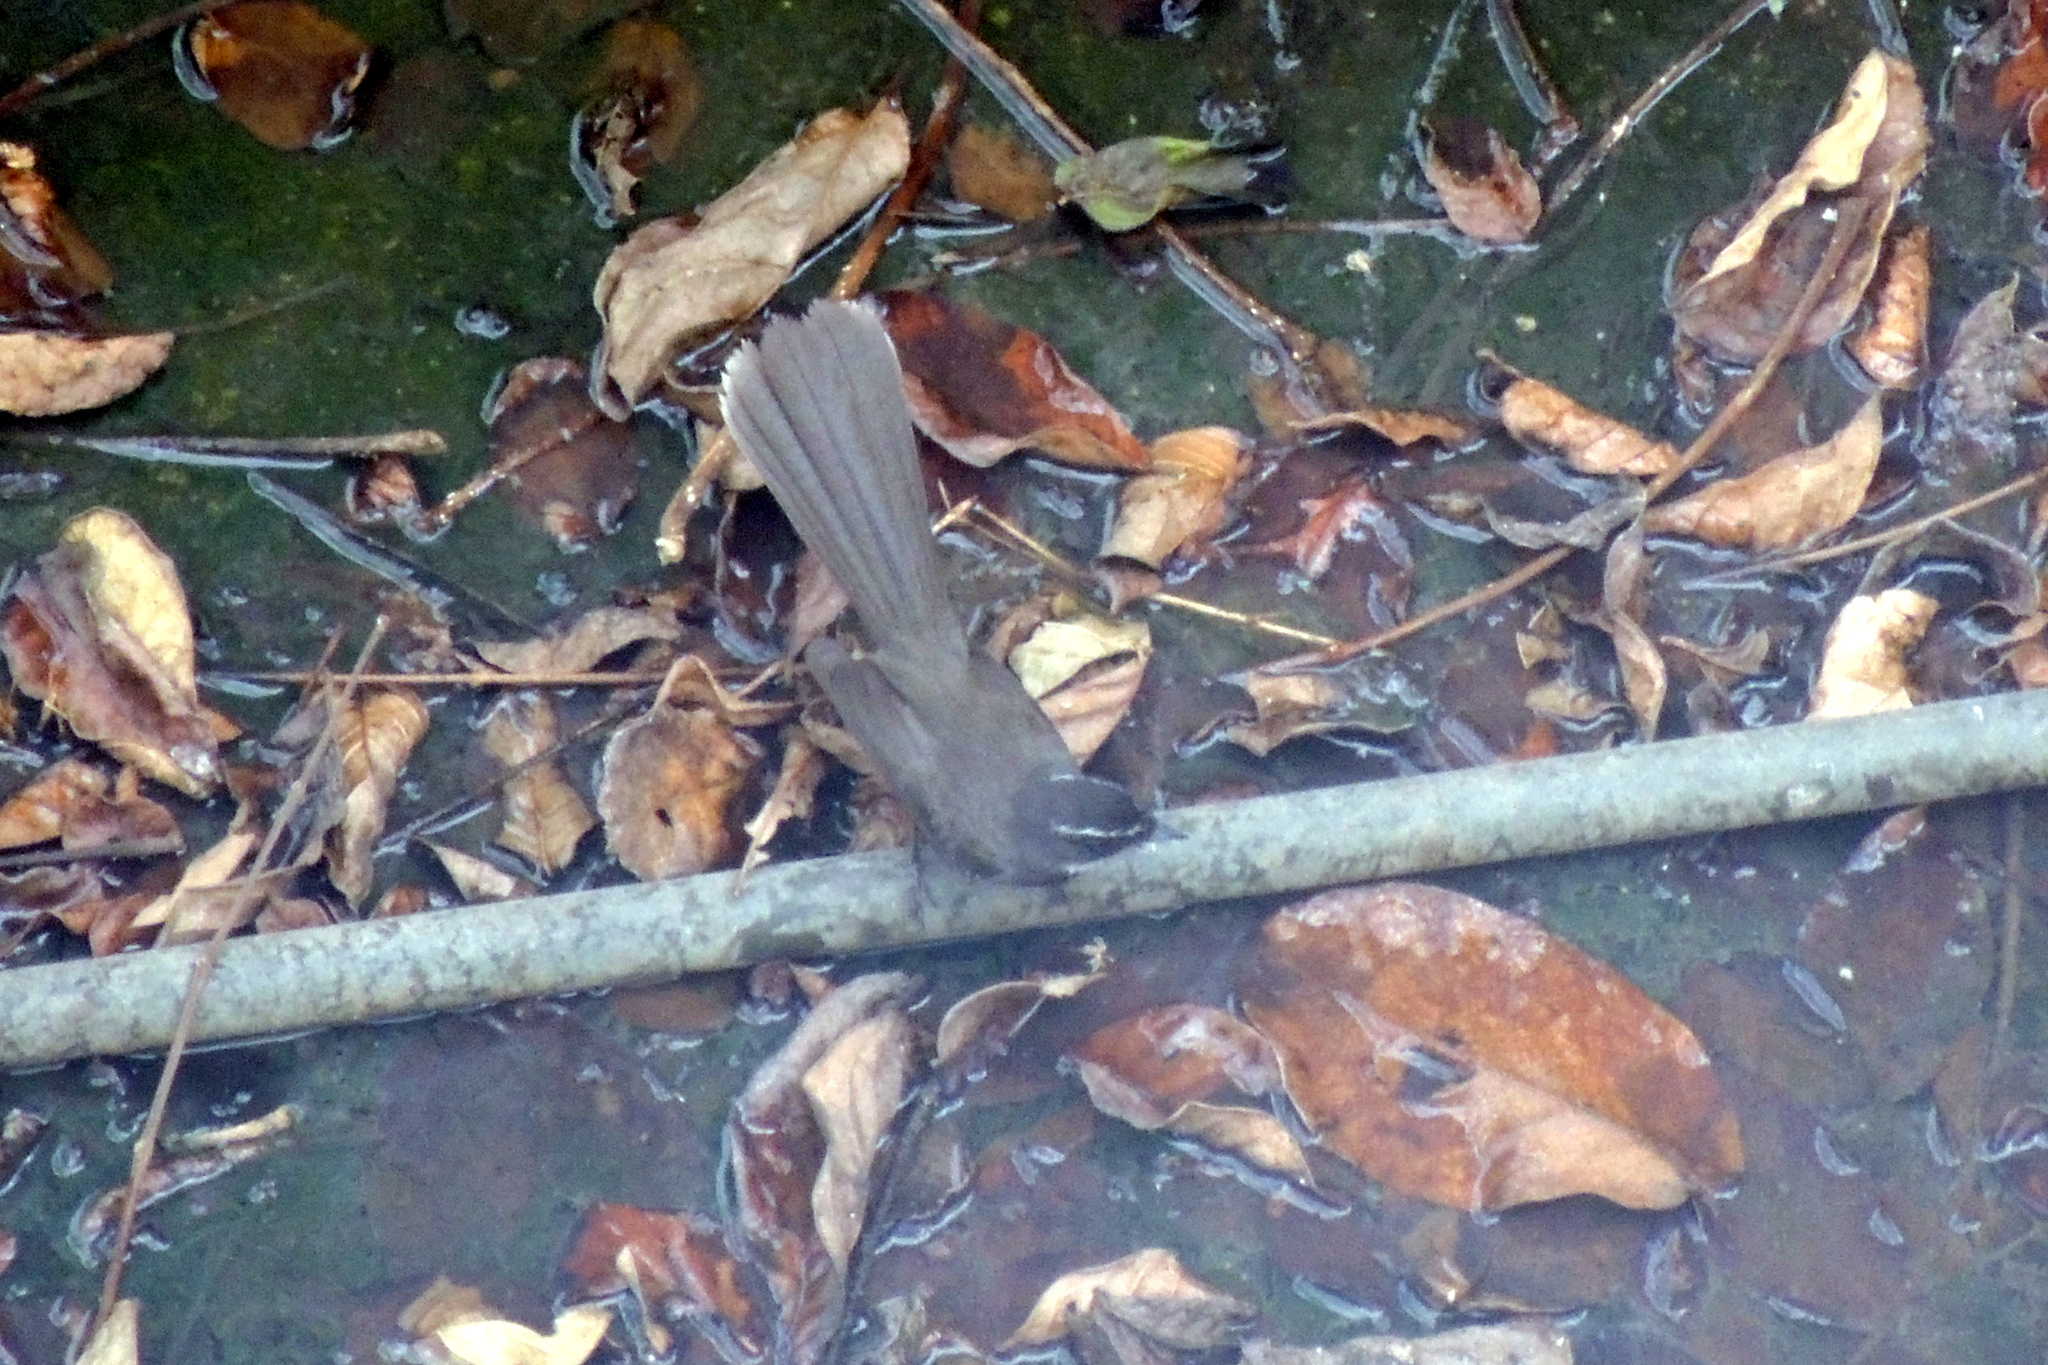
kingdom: Animalia
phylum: Chordata
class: Aves
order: Passeriformes
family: Rhipiduridae
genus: Rhipidura
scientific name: Rhipidura albogularis
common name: White-spotted fantail
